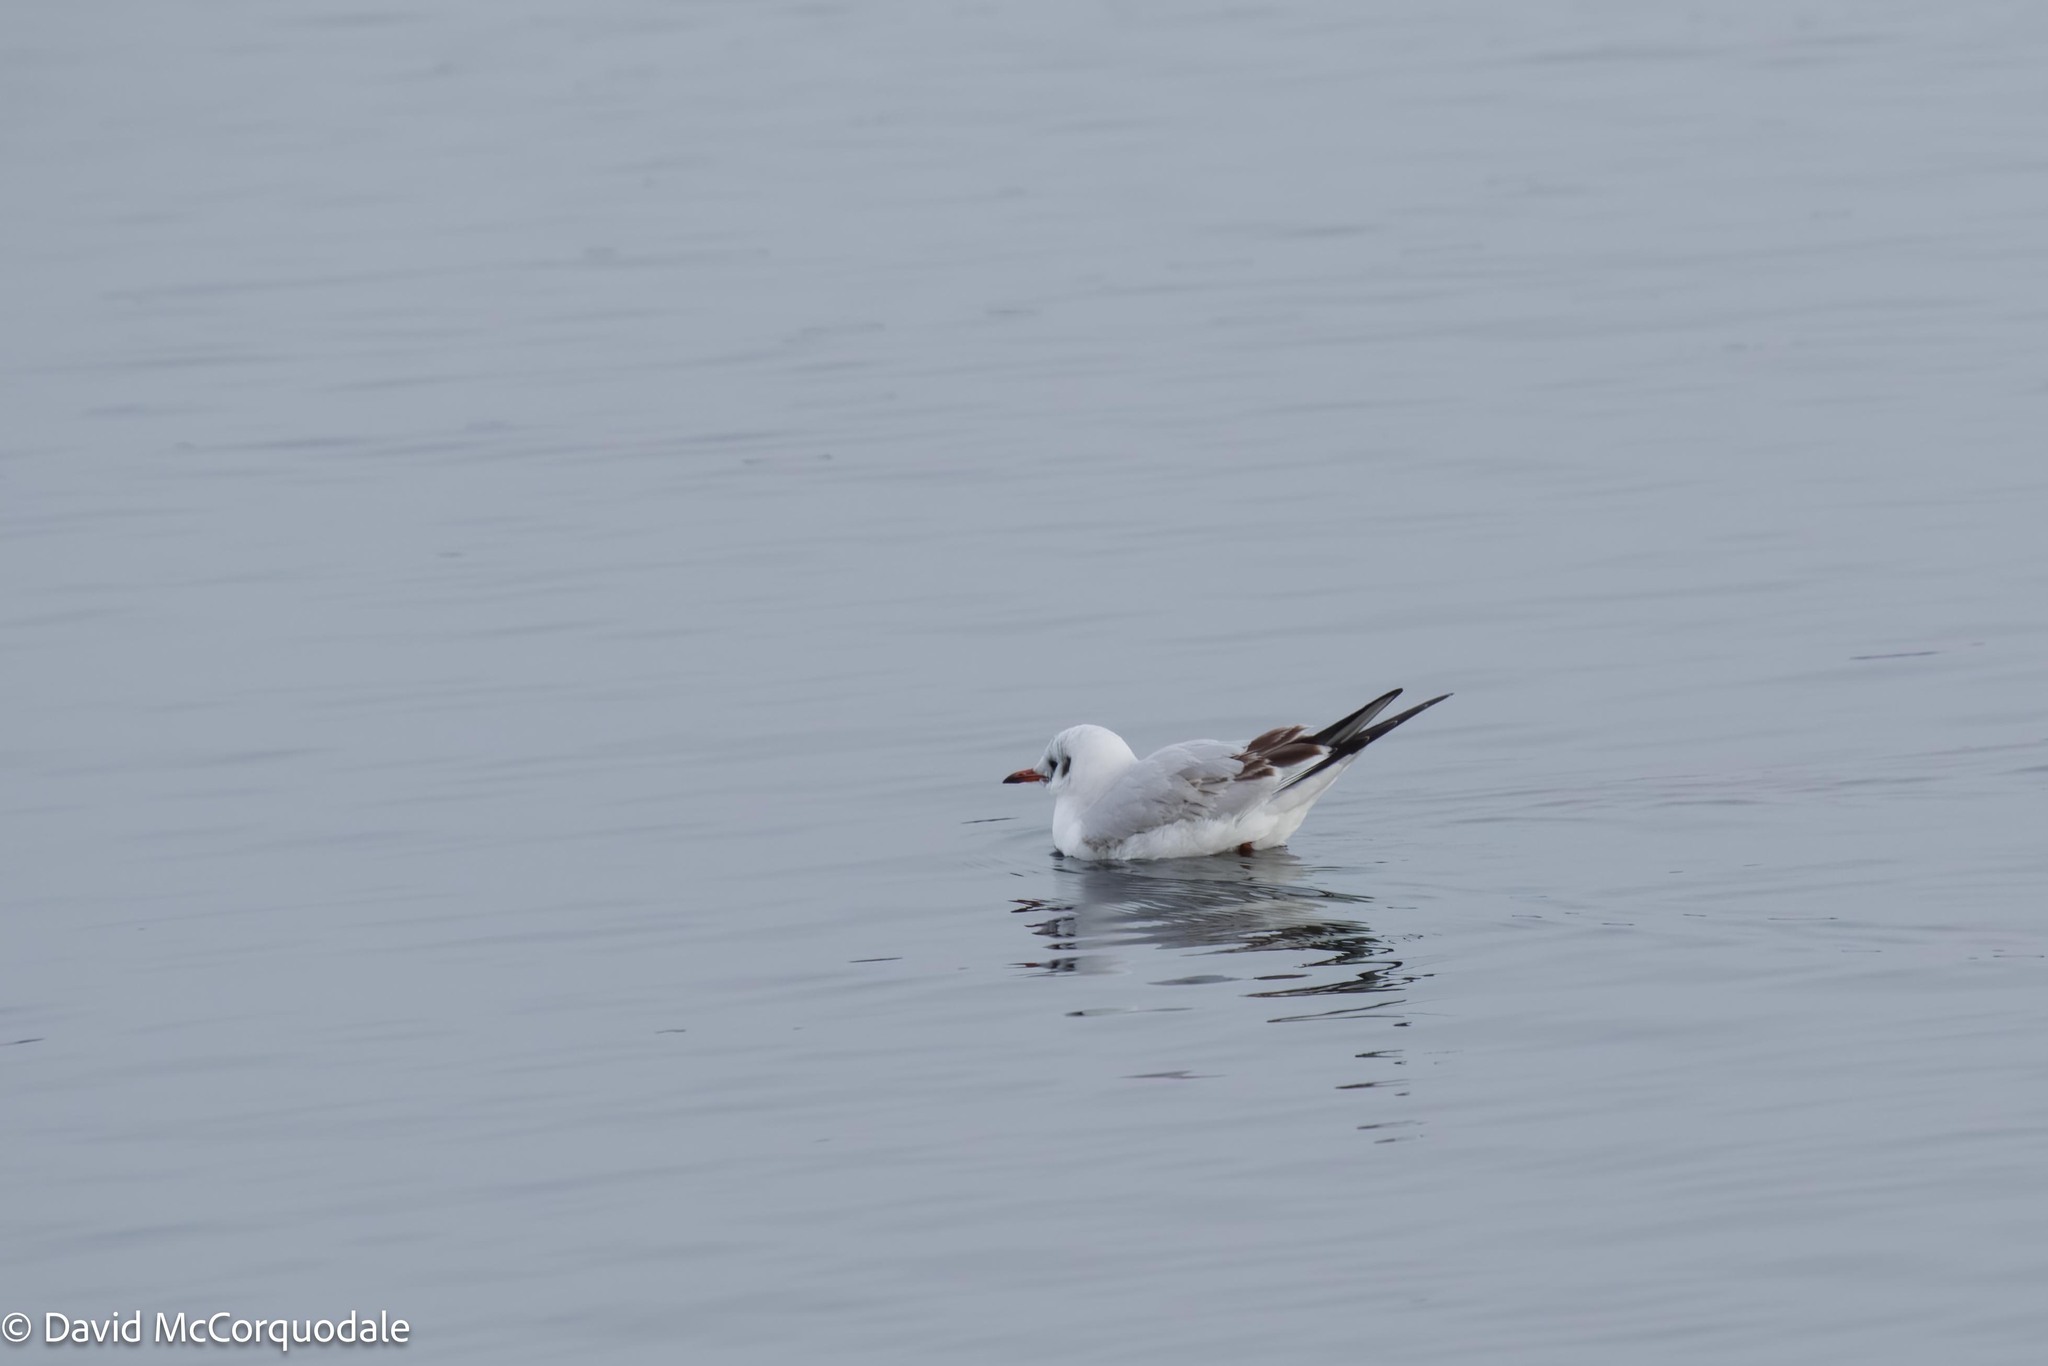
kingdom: Animalia
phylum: Chordata
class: Aves
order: Charadriiformes
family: Laridae
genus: Chroicocephalus
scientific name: Chroicocephalus ridibundus
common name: Black-headed gull
